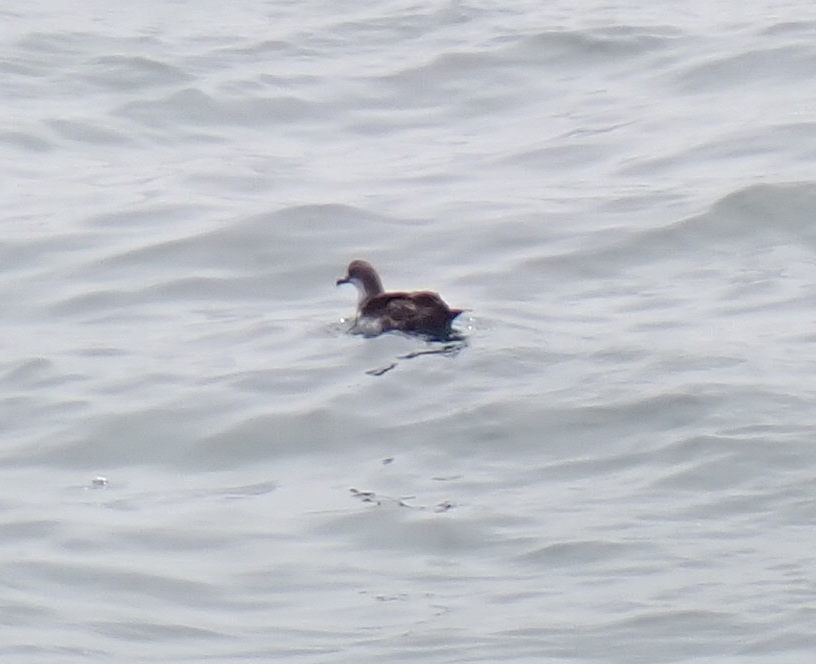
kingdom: Animalia
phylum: Chordata
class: Aves
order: Procellariiformes
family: Procellariidae
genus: Puffinus
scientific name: Puffinus gravis
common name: Great shearwater
